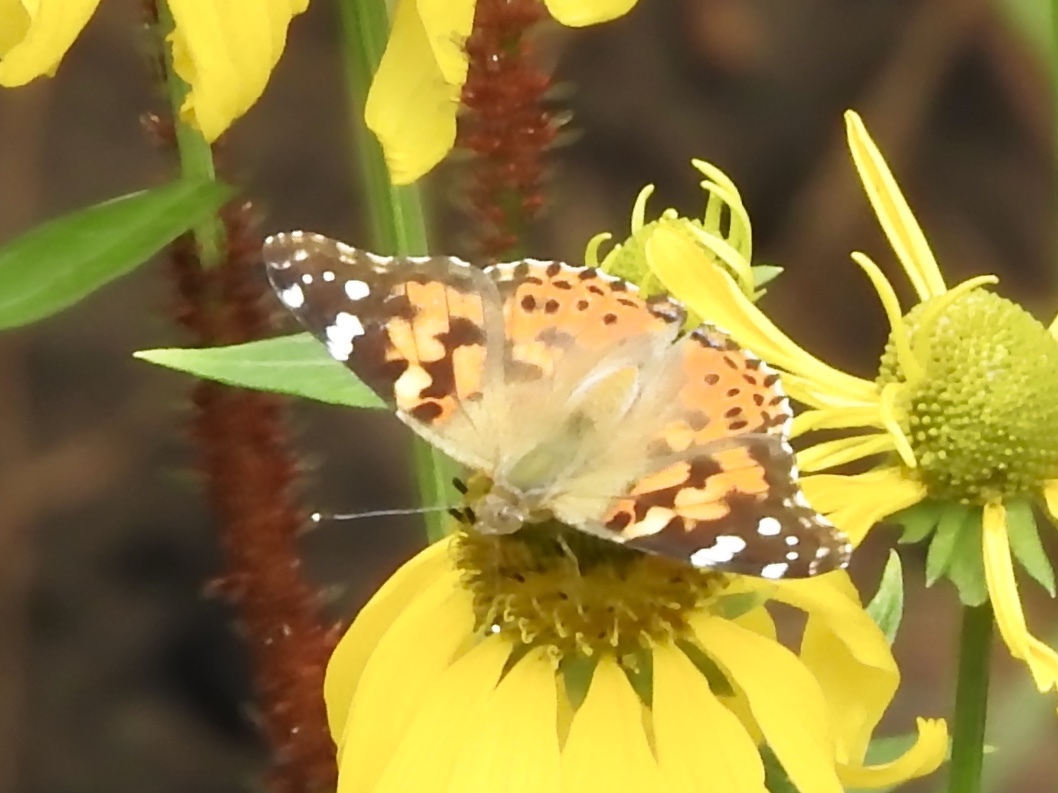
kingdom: Animalia
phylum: Arthropoda
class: Insecta
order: Lepidoptera
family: Nymphalidae
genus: Vanessa
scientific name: Vanessa cardui
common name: Painted lady
